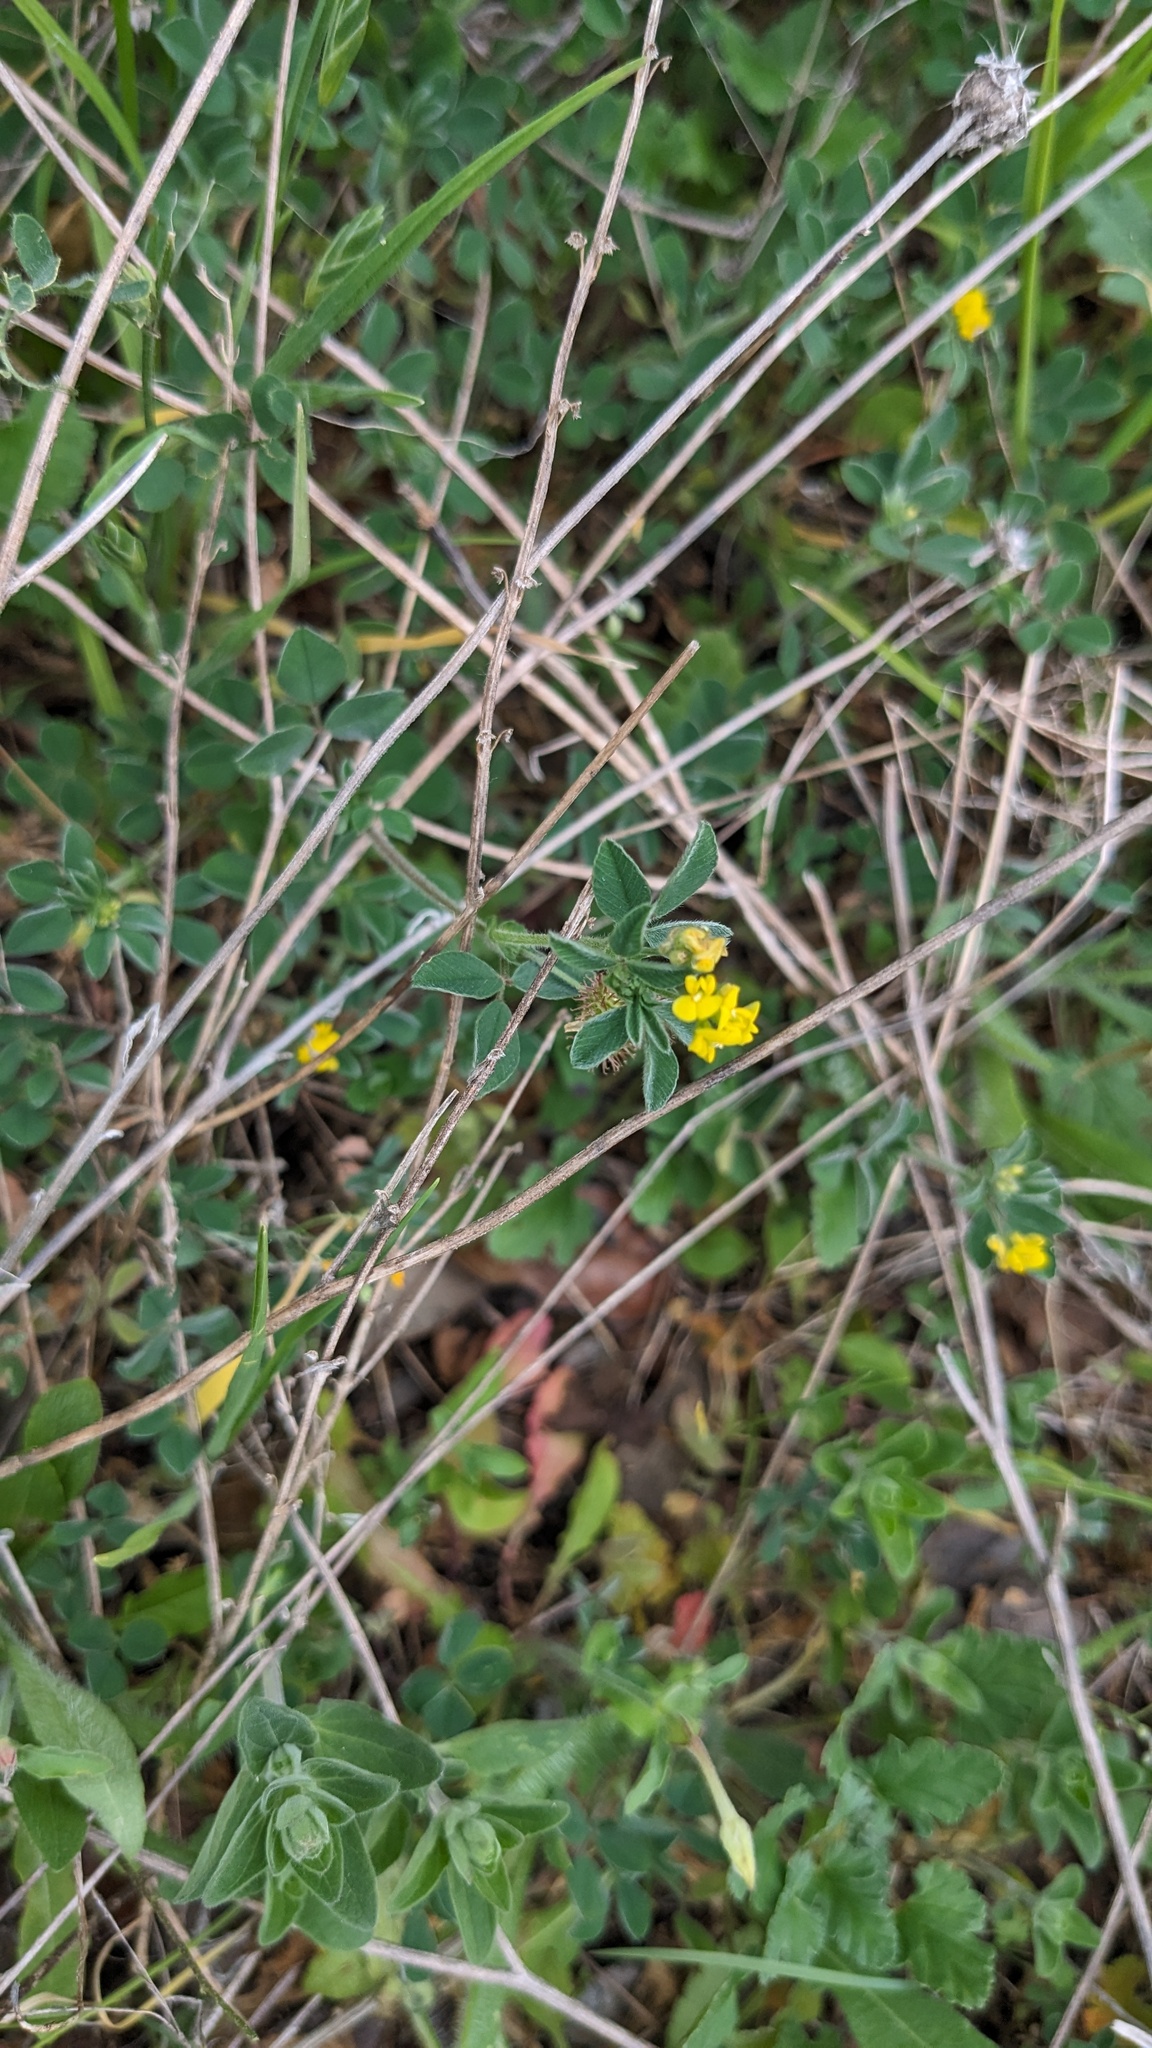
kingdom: Plantae
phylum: Tracheophyta
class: Magnoliopsida
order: Fabales
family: Fabaceae
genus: Medicago
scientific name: Medicago minima
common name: Little bur-clover
